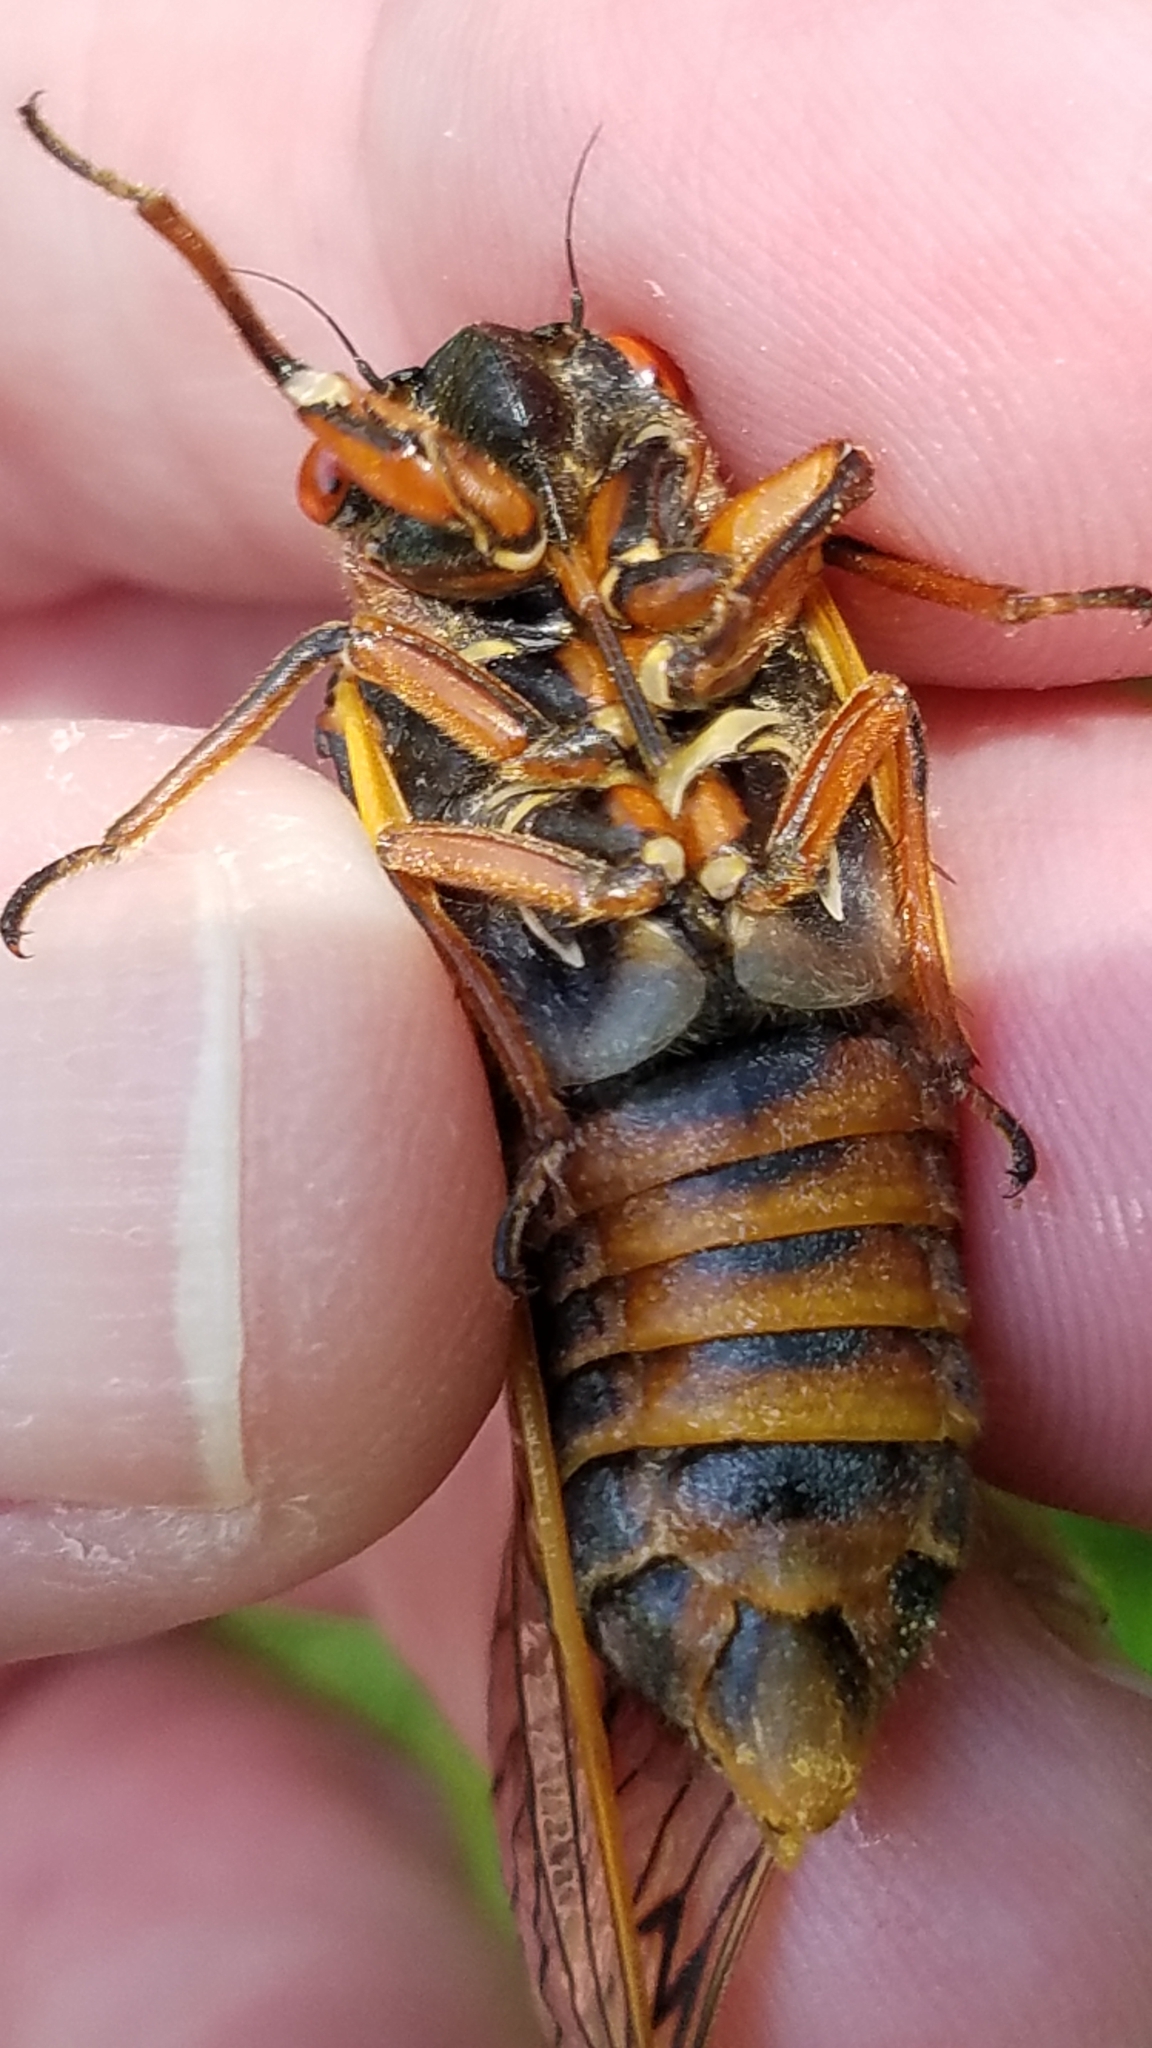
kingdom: Animalia
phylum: Arthropoda
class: Insecta
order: Hemiptera
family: Cicadidae
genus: Magicicada
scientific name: Magicicada septendecim
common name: Periodical cicada
